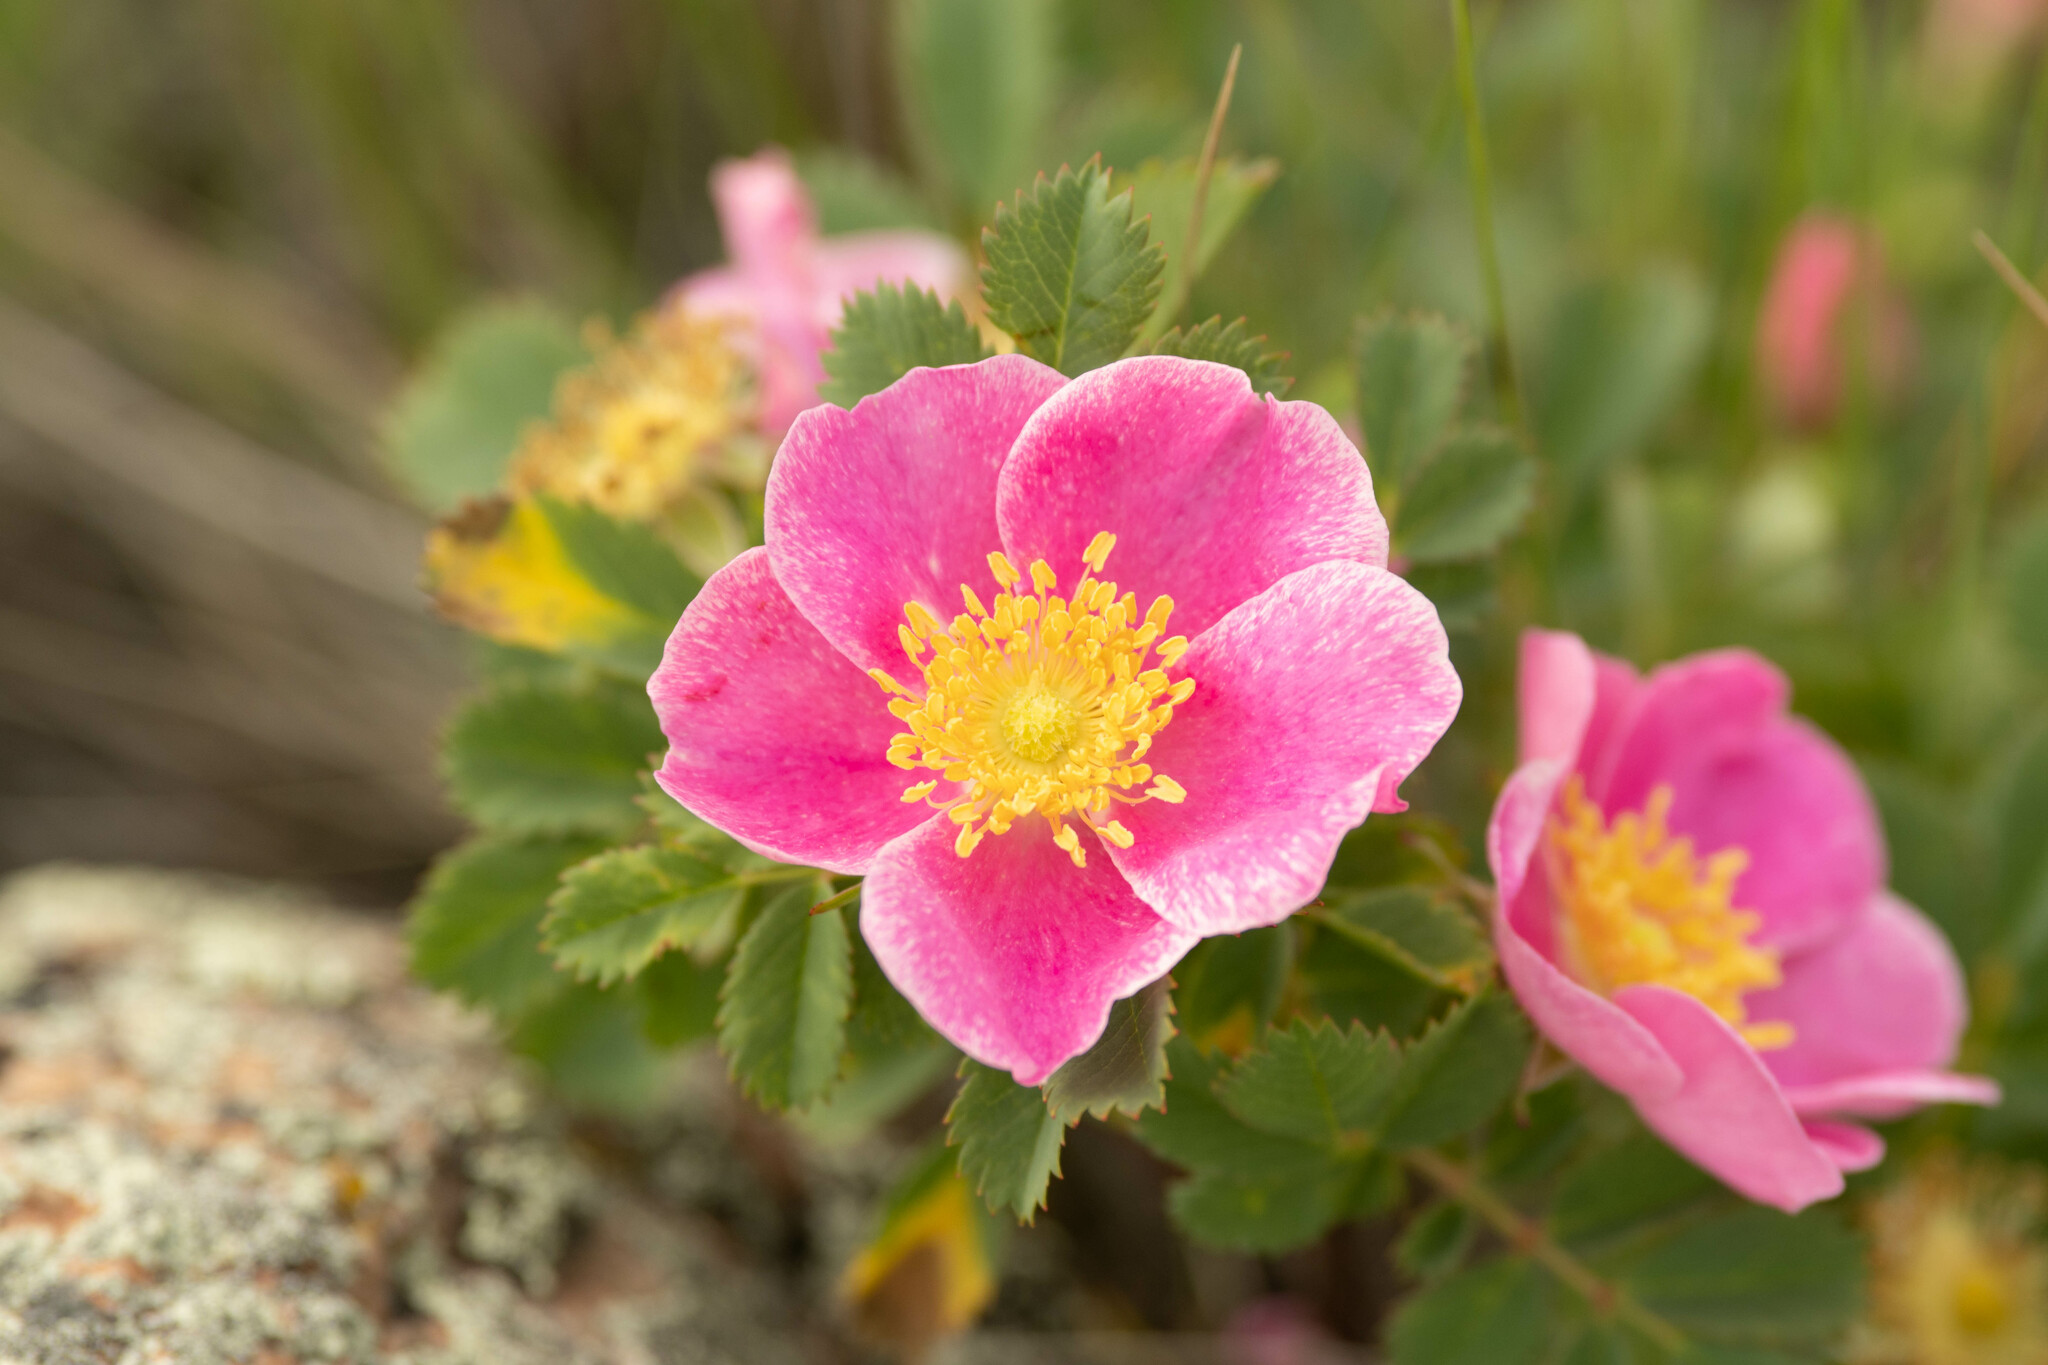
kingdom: Plantae
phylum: Tracheophyta
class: Magnoliopsida
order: Rosales
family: Rosaceae
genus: Rosa
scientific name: Rosa arkansana
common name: Prairie rose
